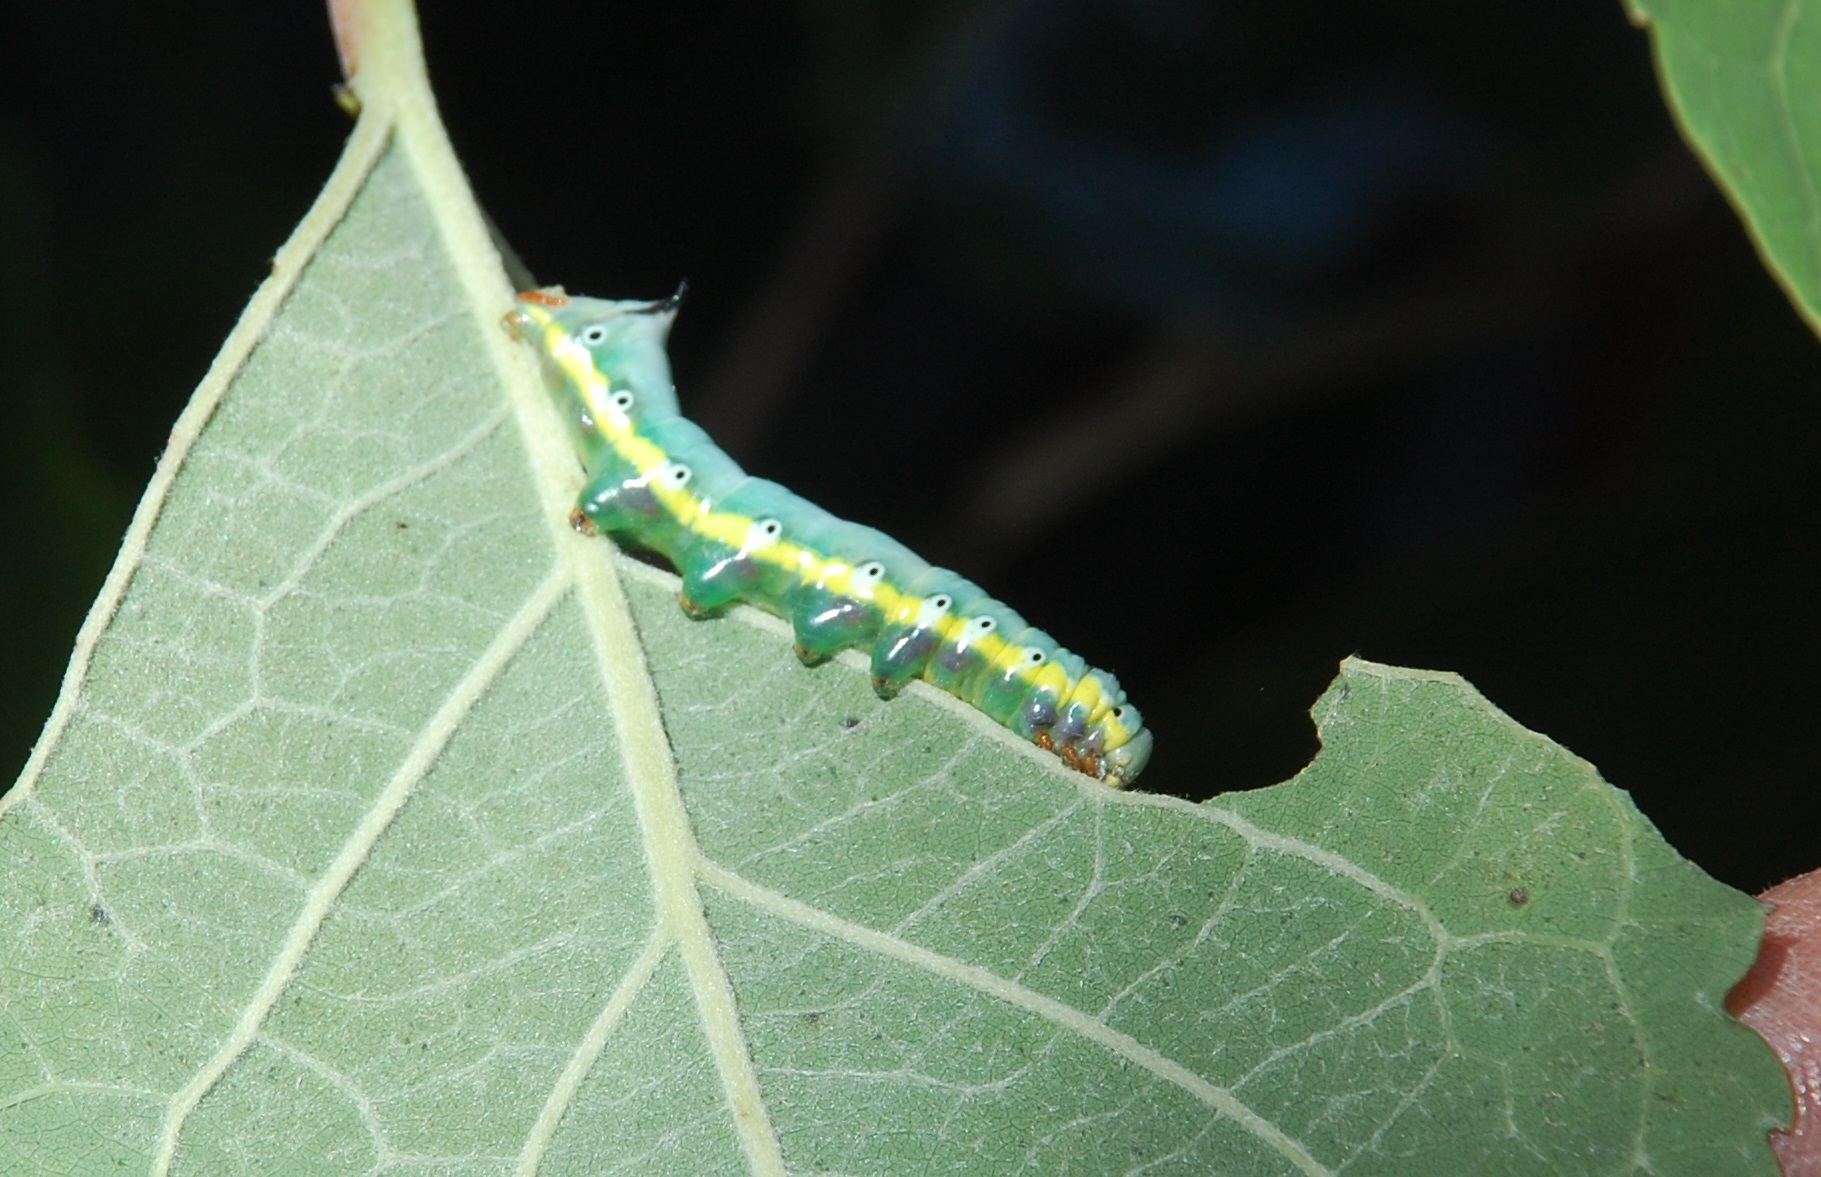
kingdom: Animalia
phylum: Arthropoda
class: Insecta
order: Lepidoptera
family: Notodontidae
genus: Pheosia
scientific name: Pheosia rimosa
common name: Black-rimmed prominent
